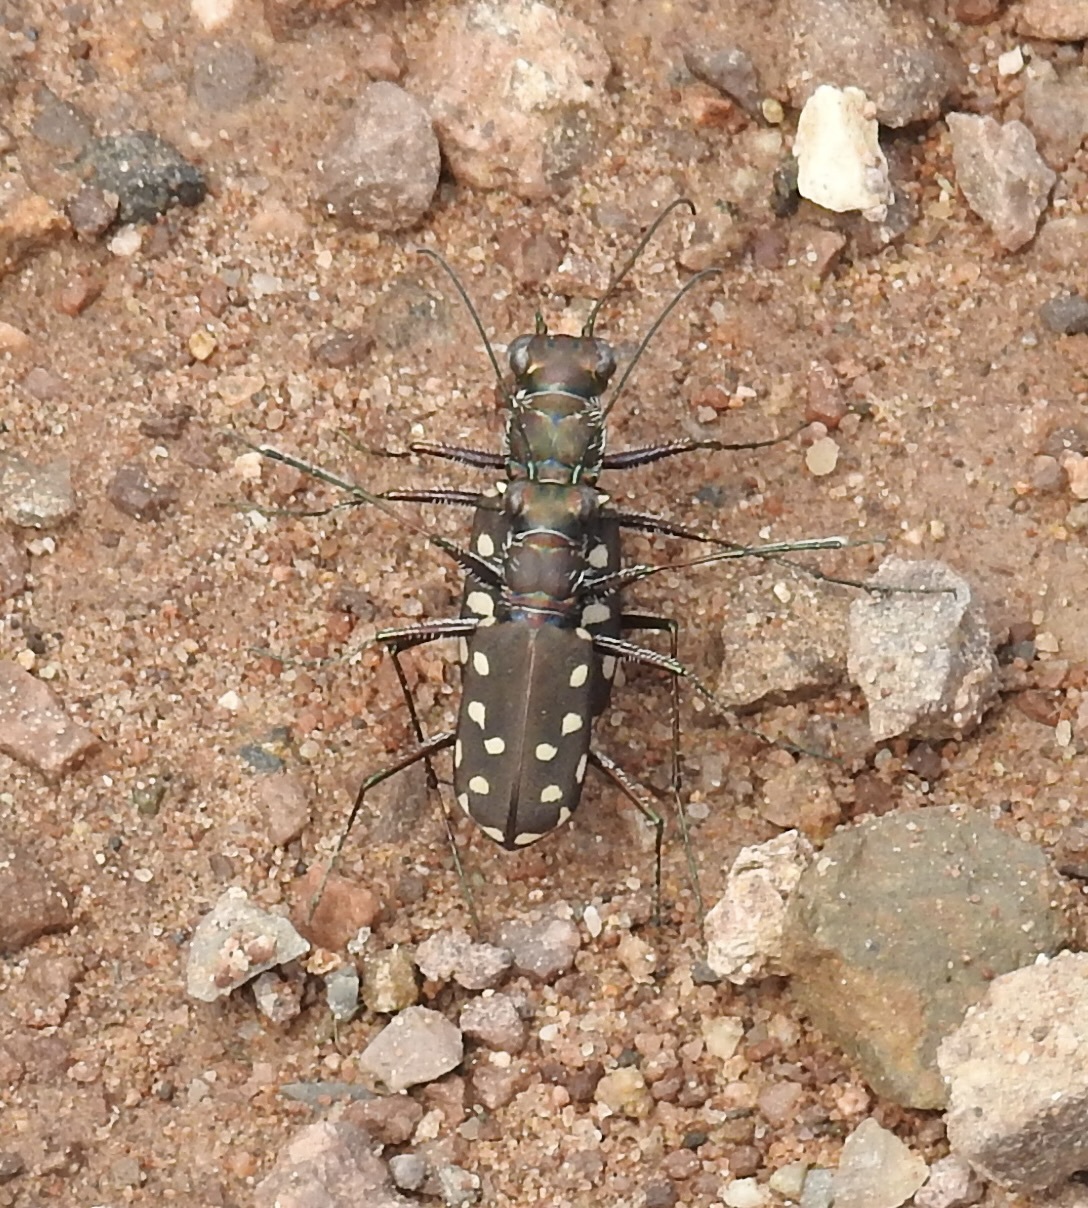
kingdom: Animalia
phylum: Arthropoda
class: Insecta
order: Coleoptera
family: Carabidae
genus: Cicindela
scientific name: Cicindela sedecimpunctata
